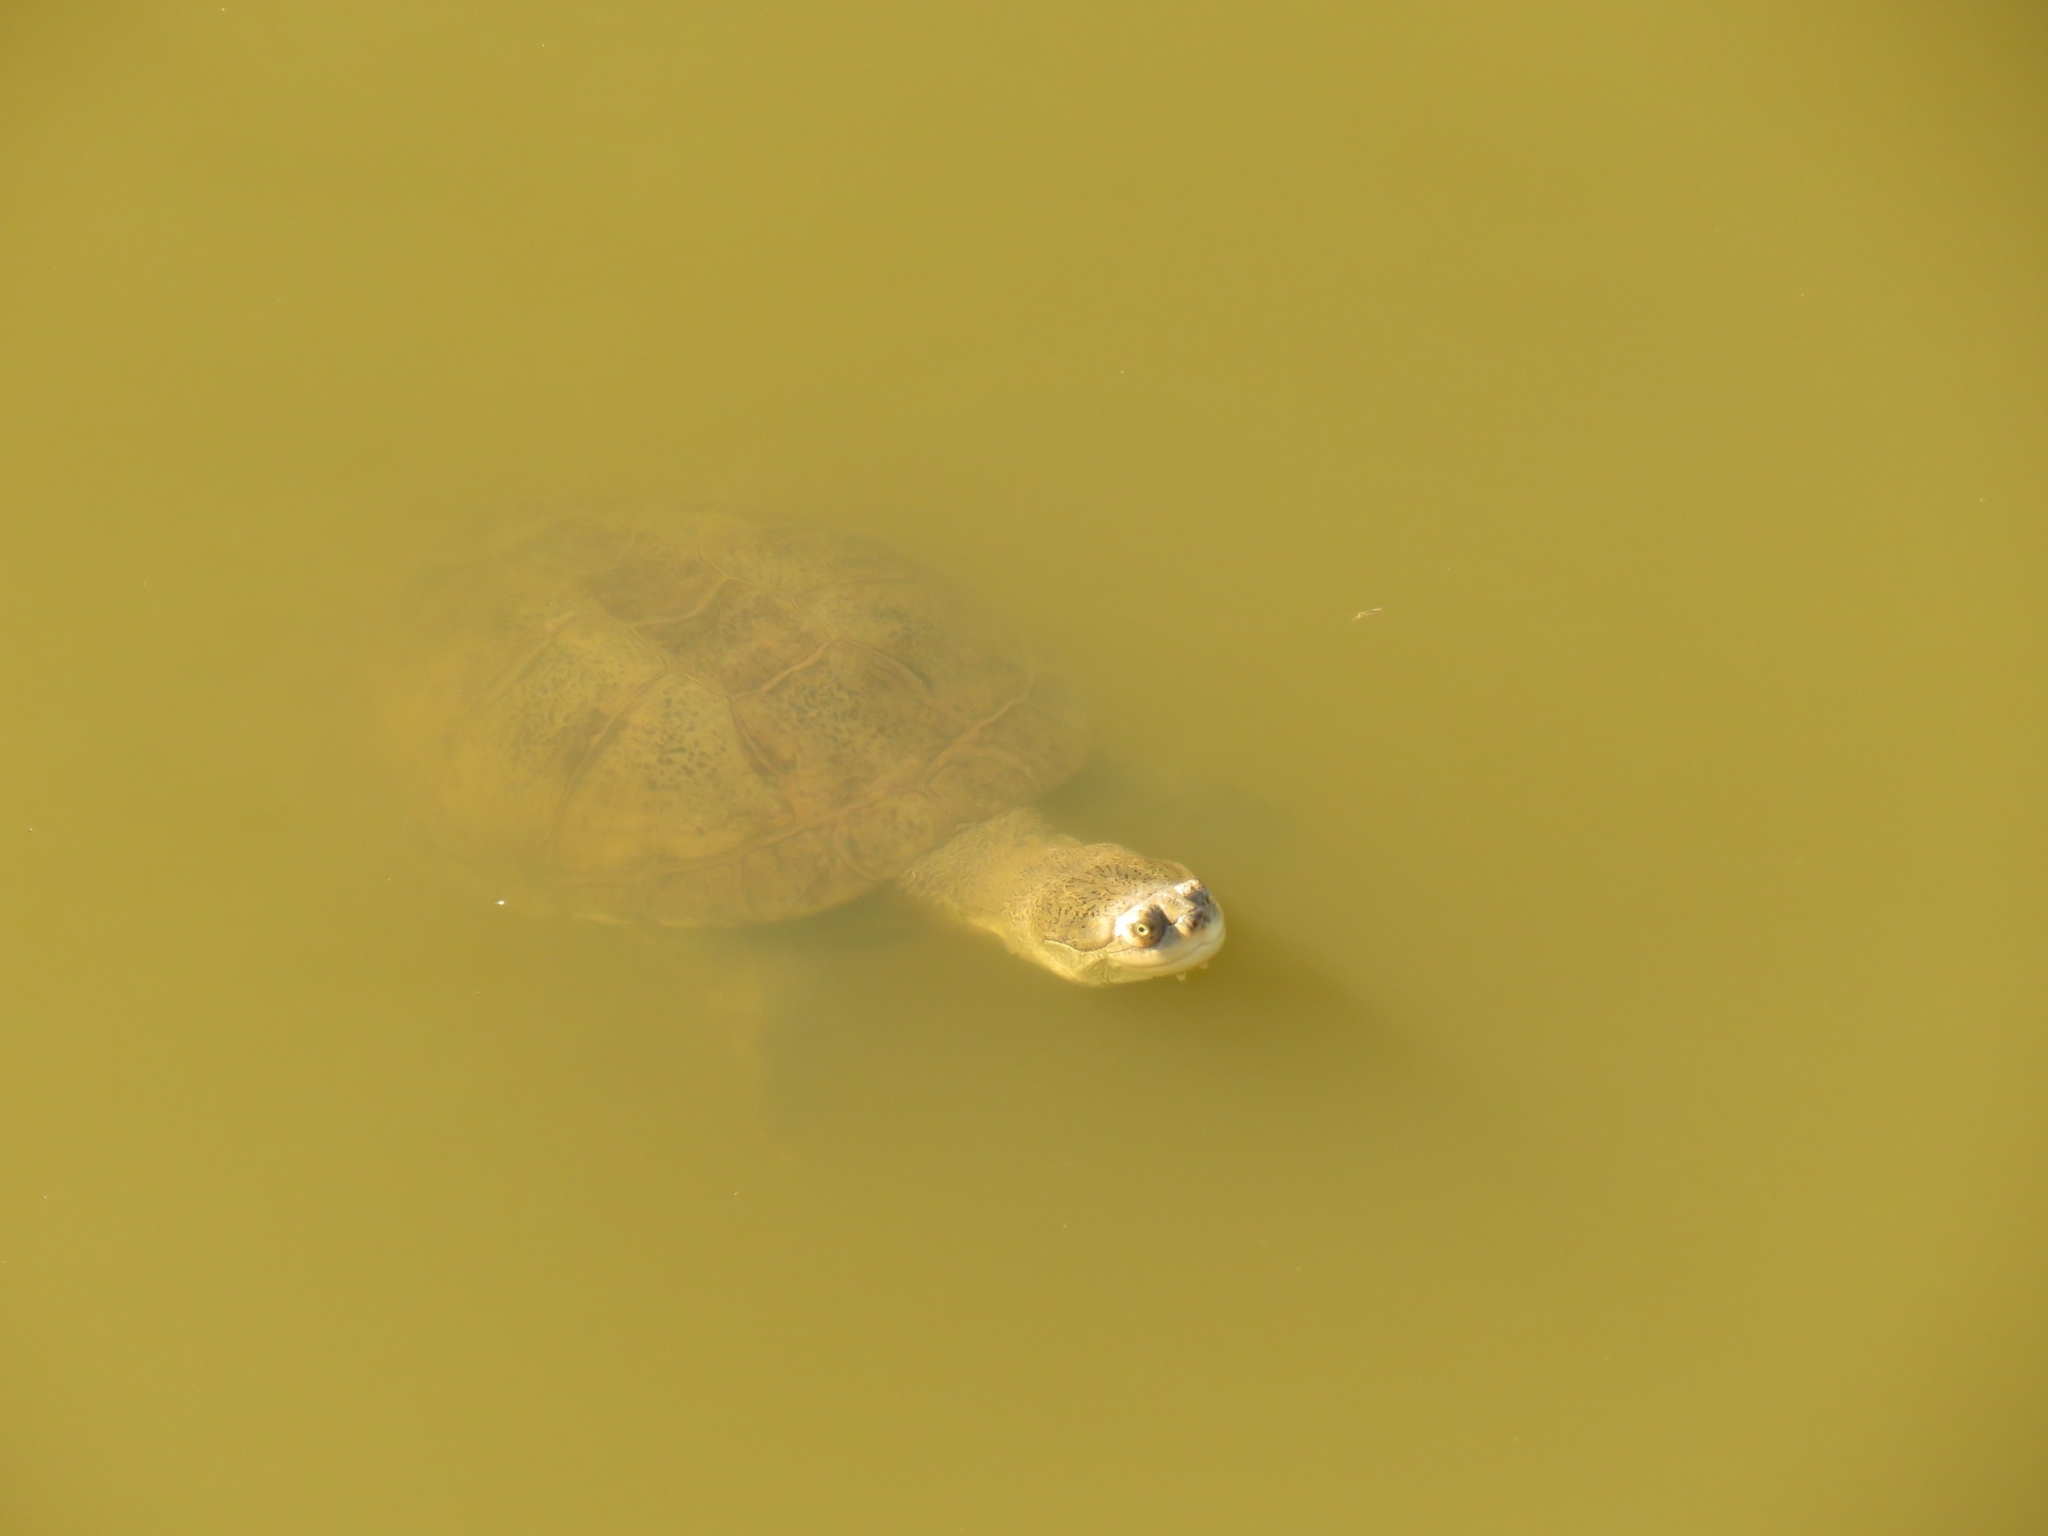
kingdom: Animalia
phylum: Chordata
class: Testudines
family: Pelomedusidae
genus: Pelomedusa
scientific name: Pelomedusa galeata
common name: South african helmeted terrapin
